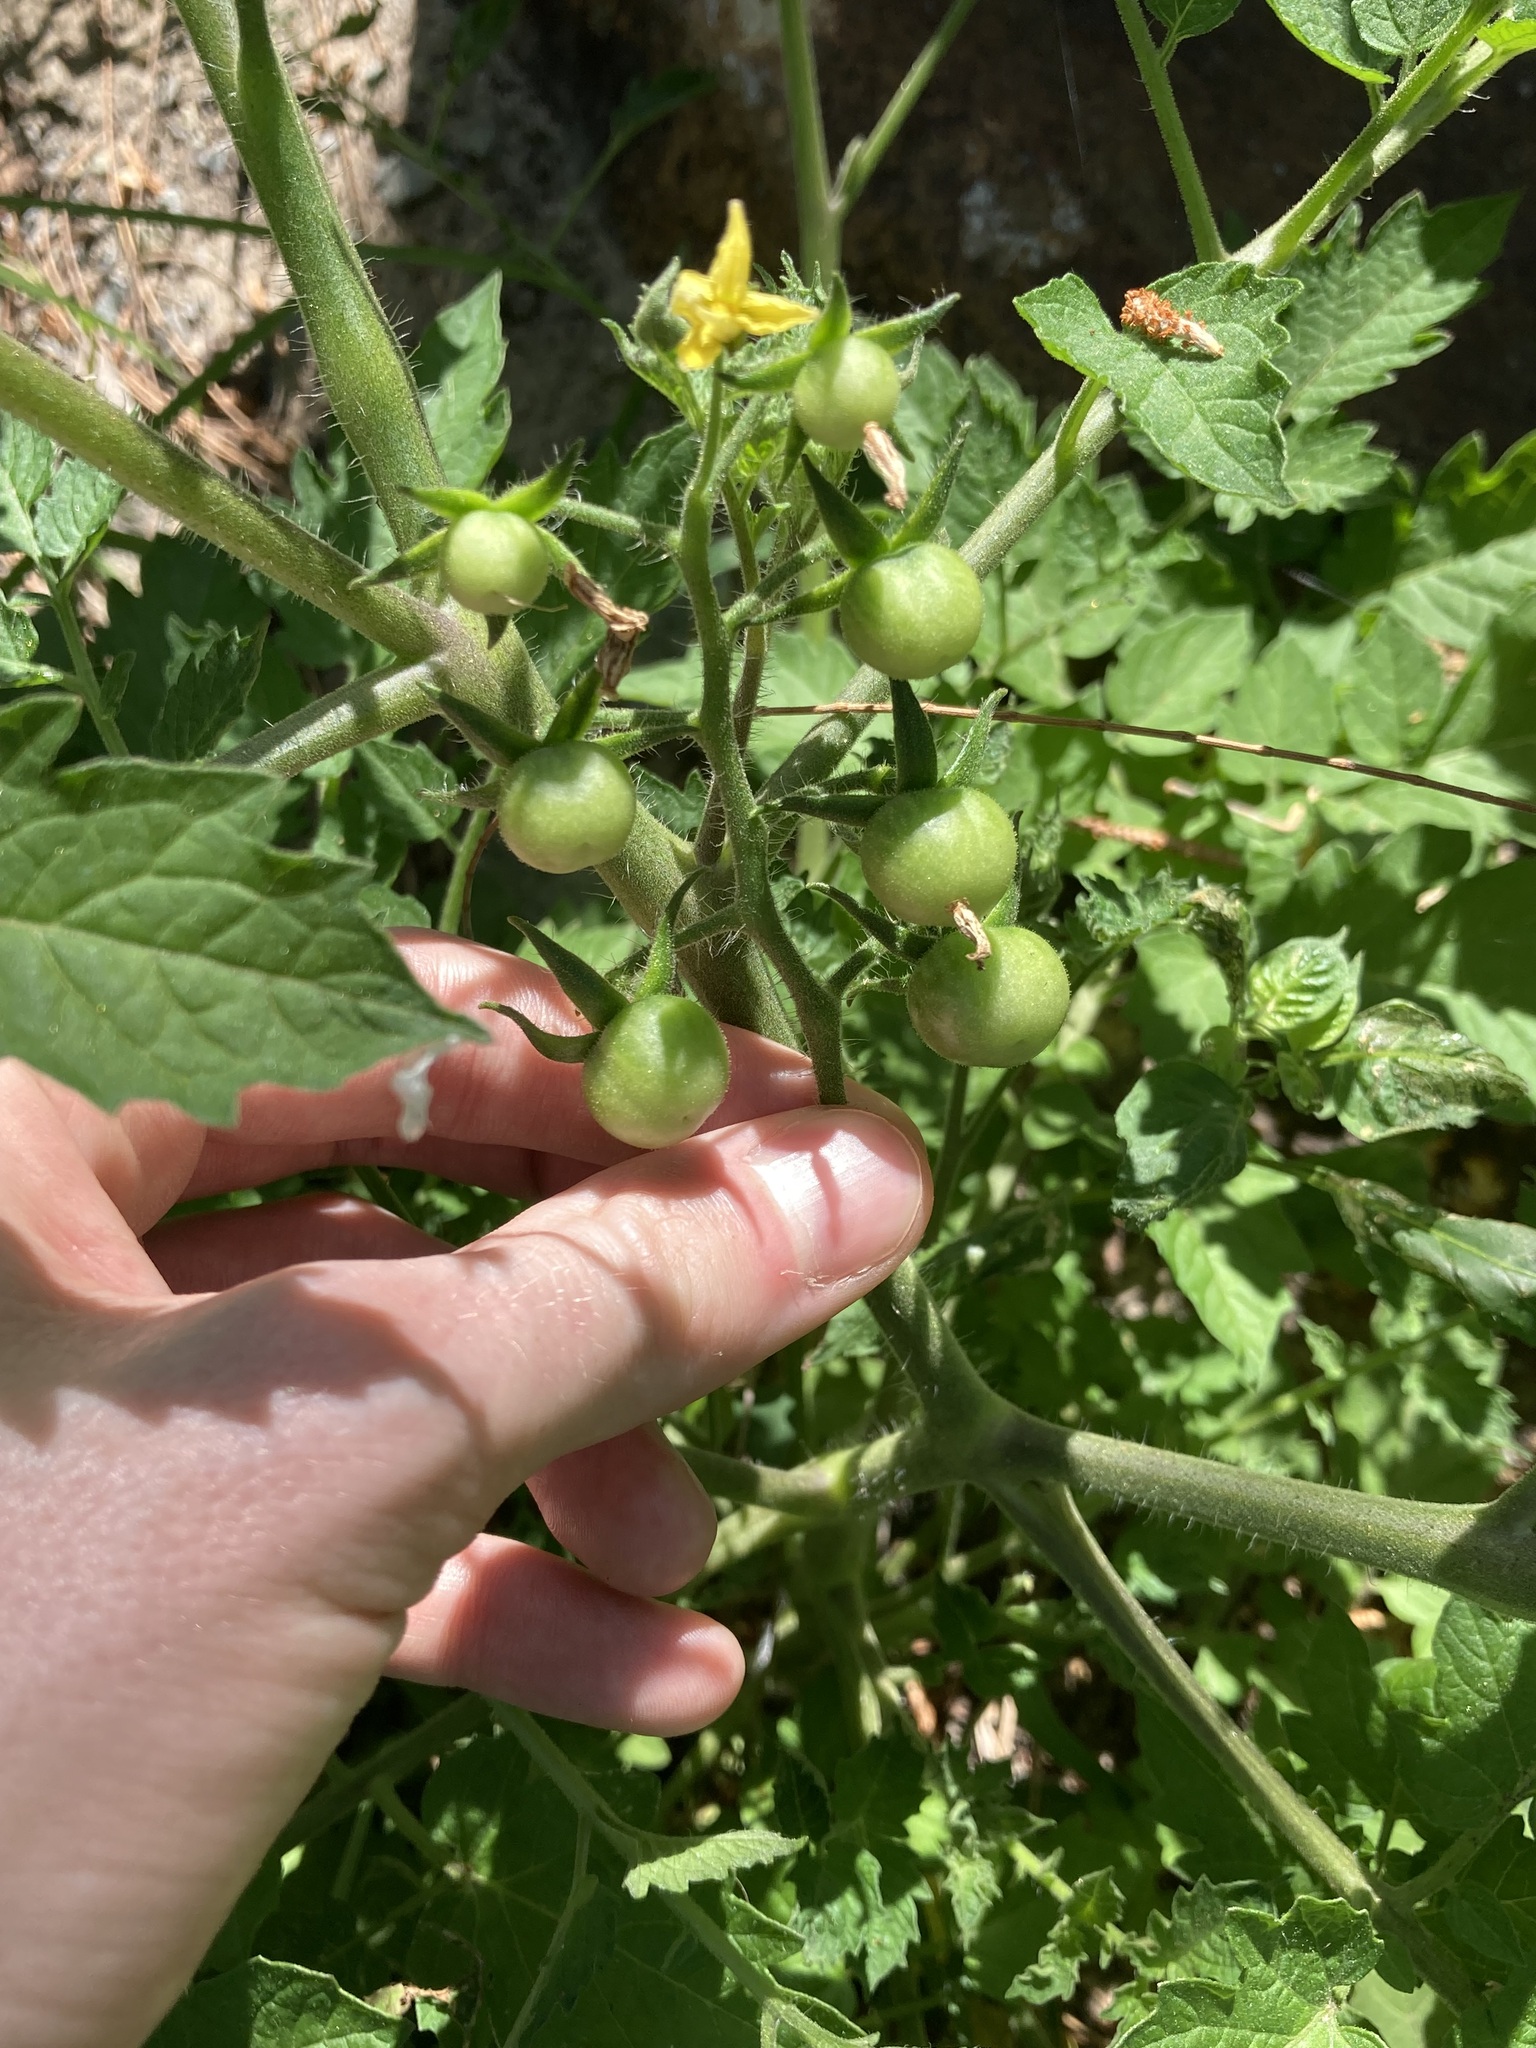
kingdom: Plantae
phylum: Tracheophyta
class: Magnoliopsida
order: Solanales
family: Solanaceae
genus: Solanum
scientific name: Solanum lycopersicum
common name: Garden tomato
